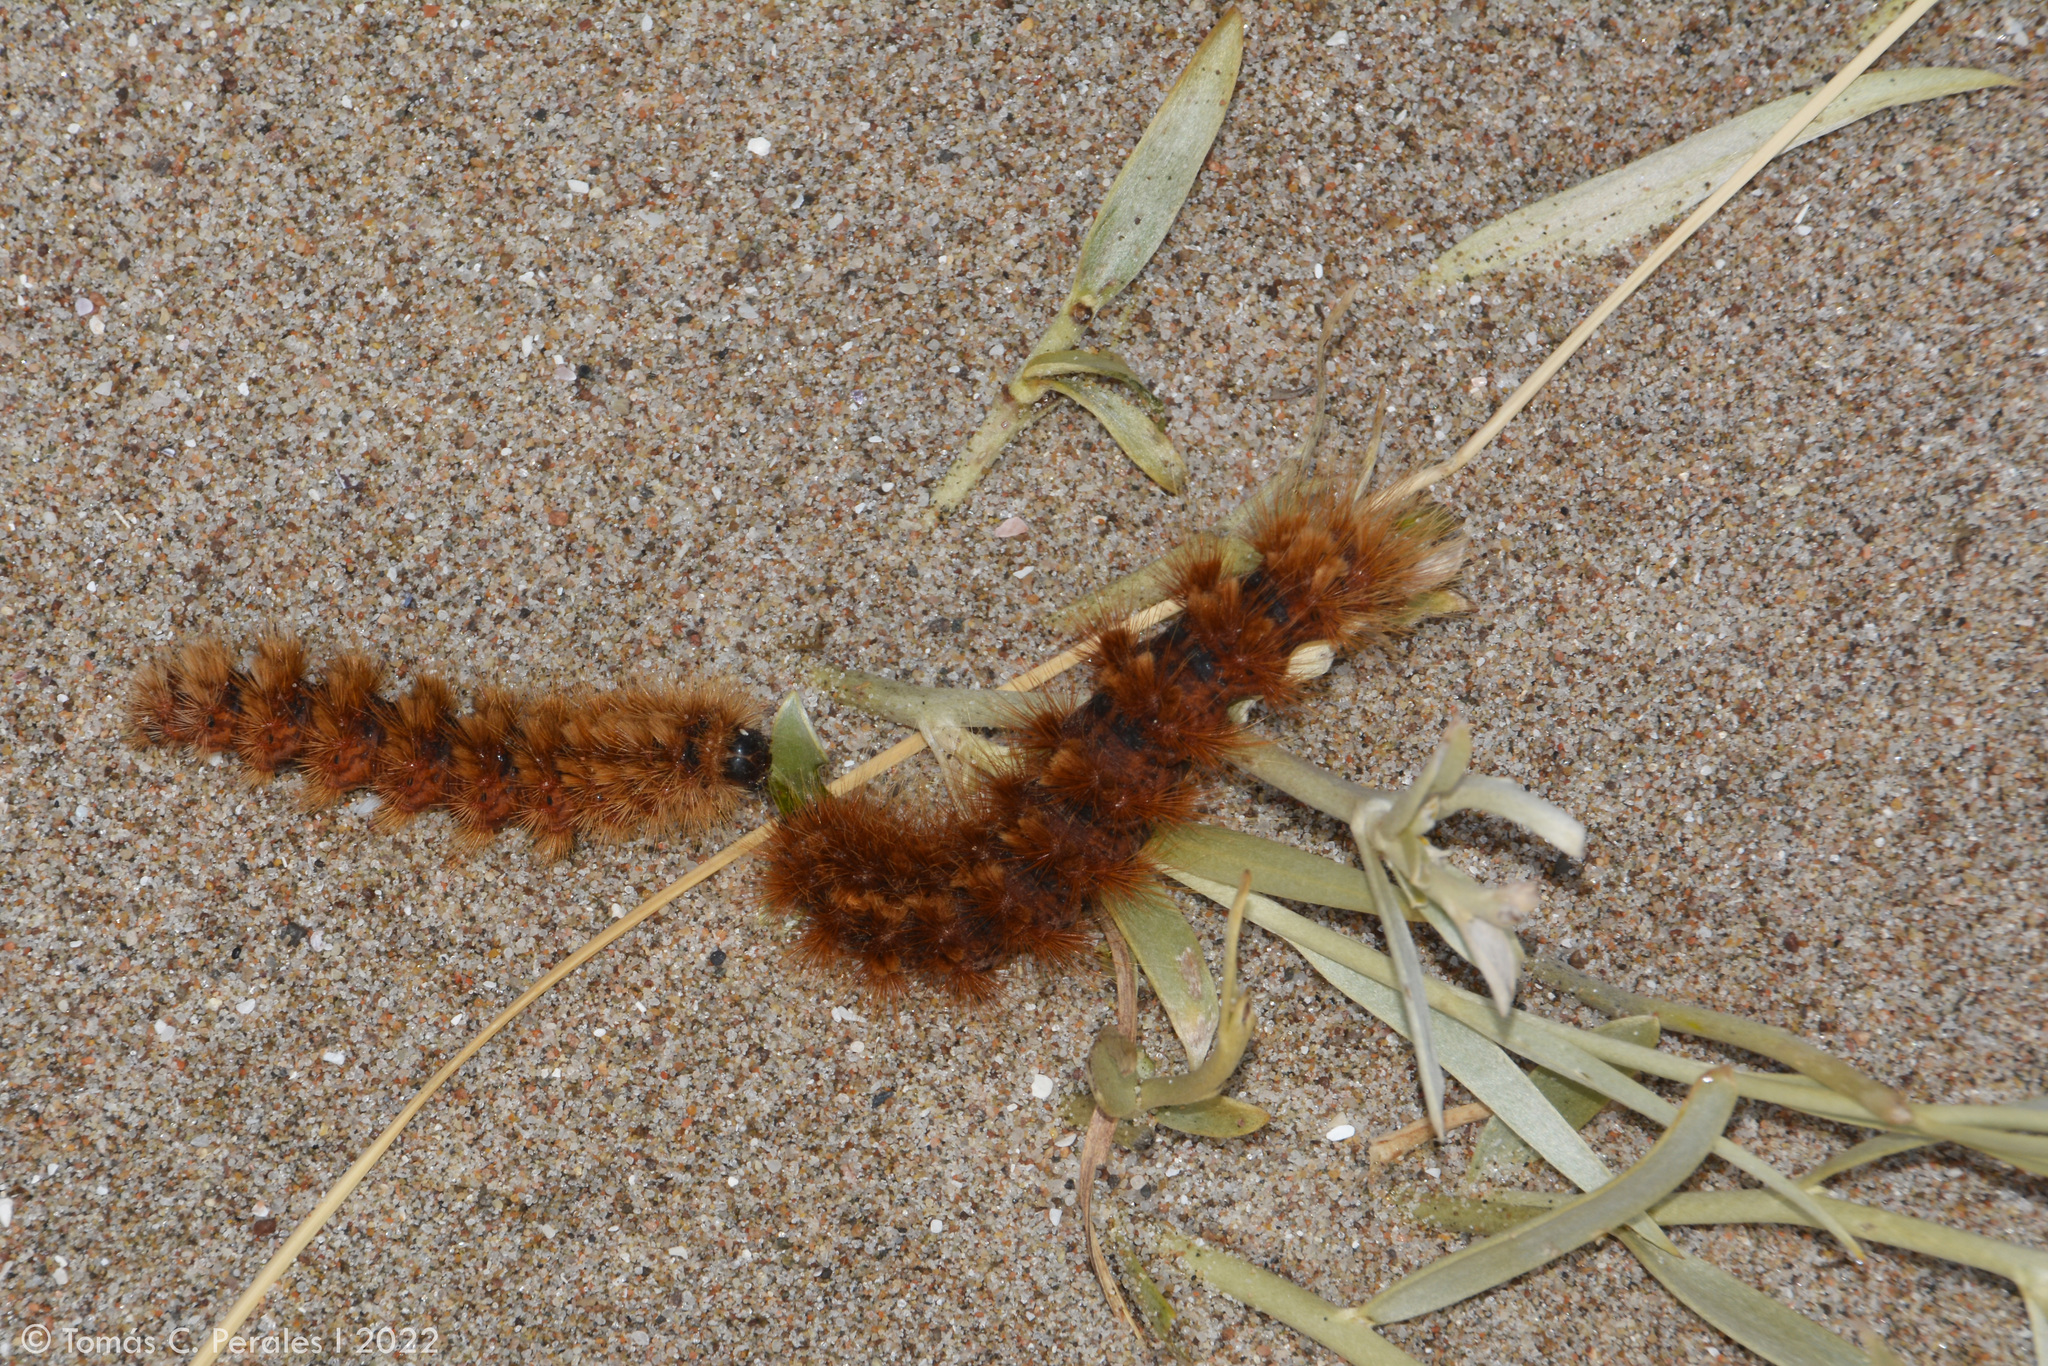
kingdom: Animalia
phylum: Arthropoda
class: Insecta
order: Lepidoptera
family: Erebidae
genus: Paracles
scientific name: Paracles severa
